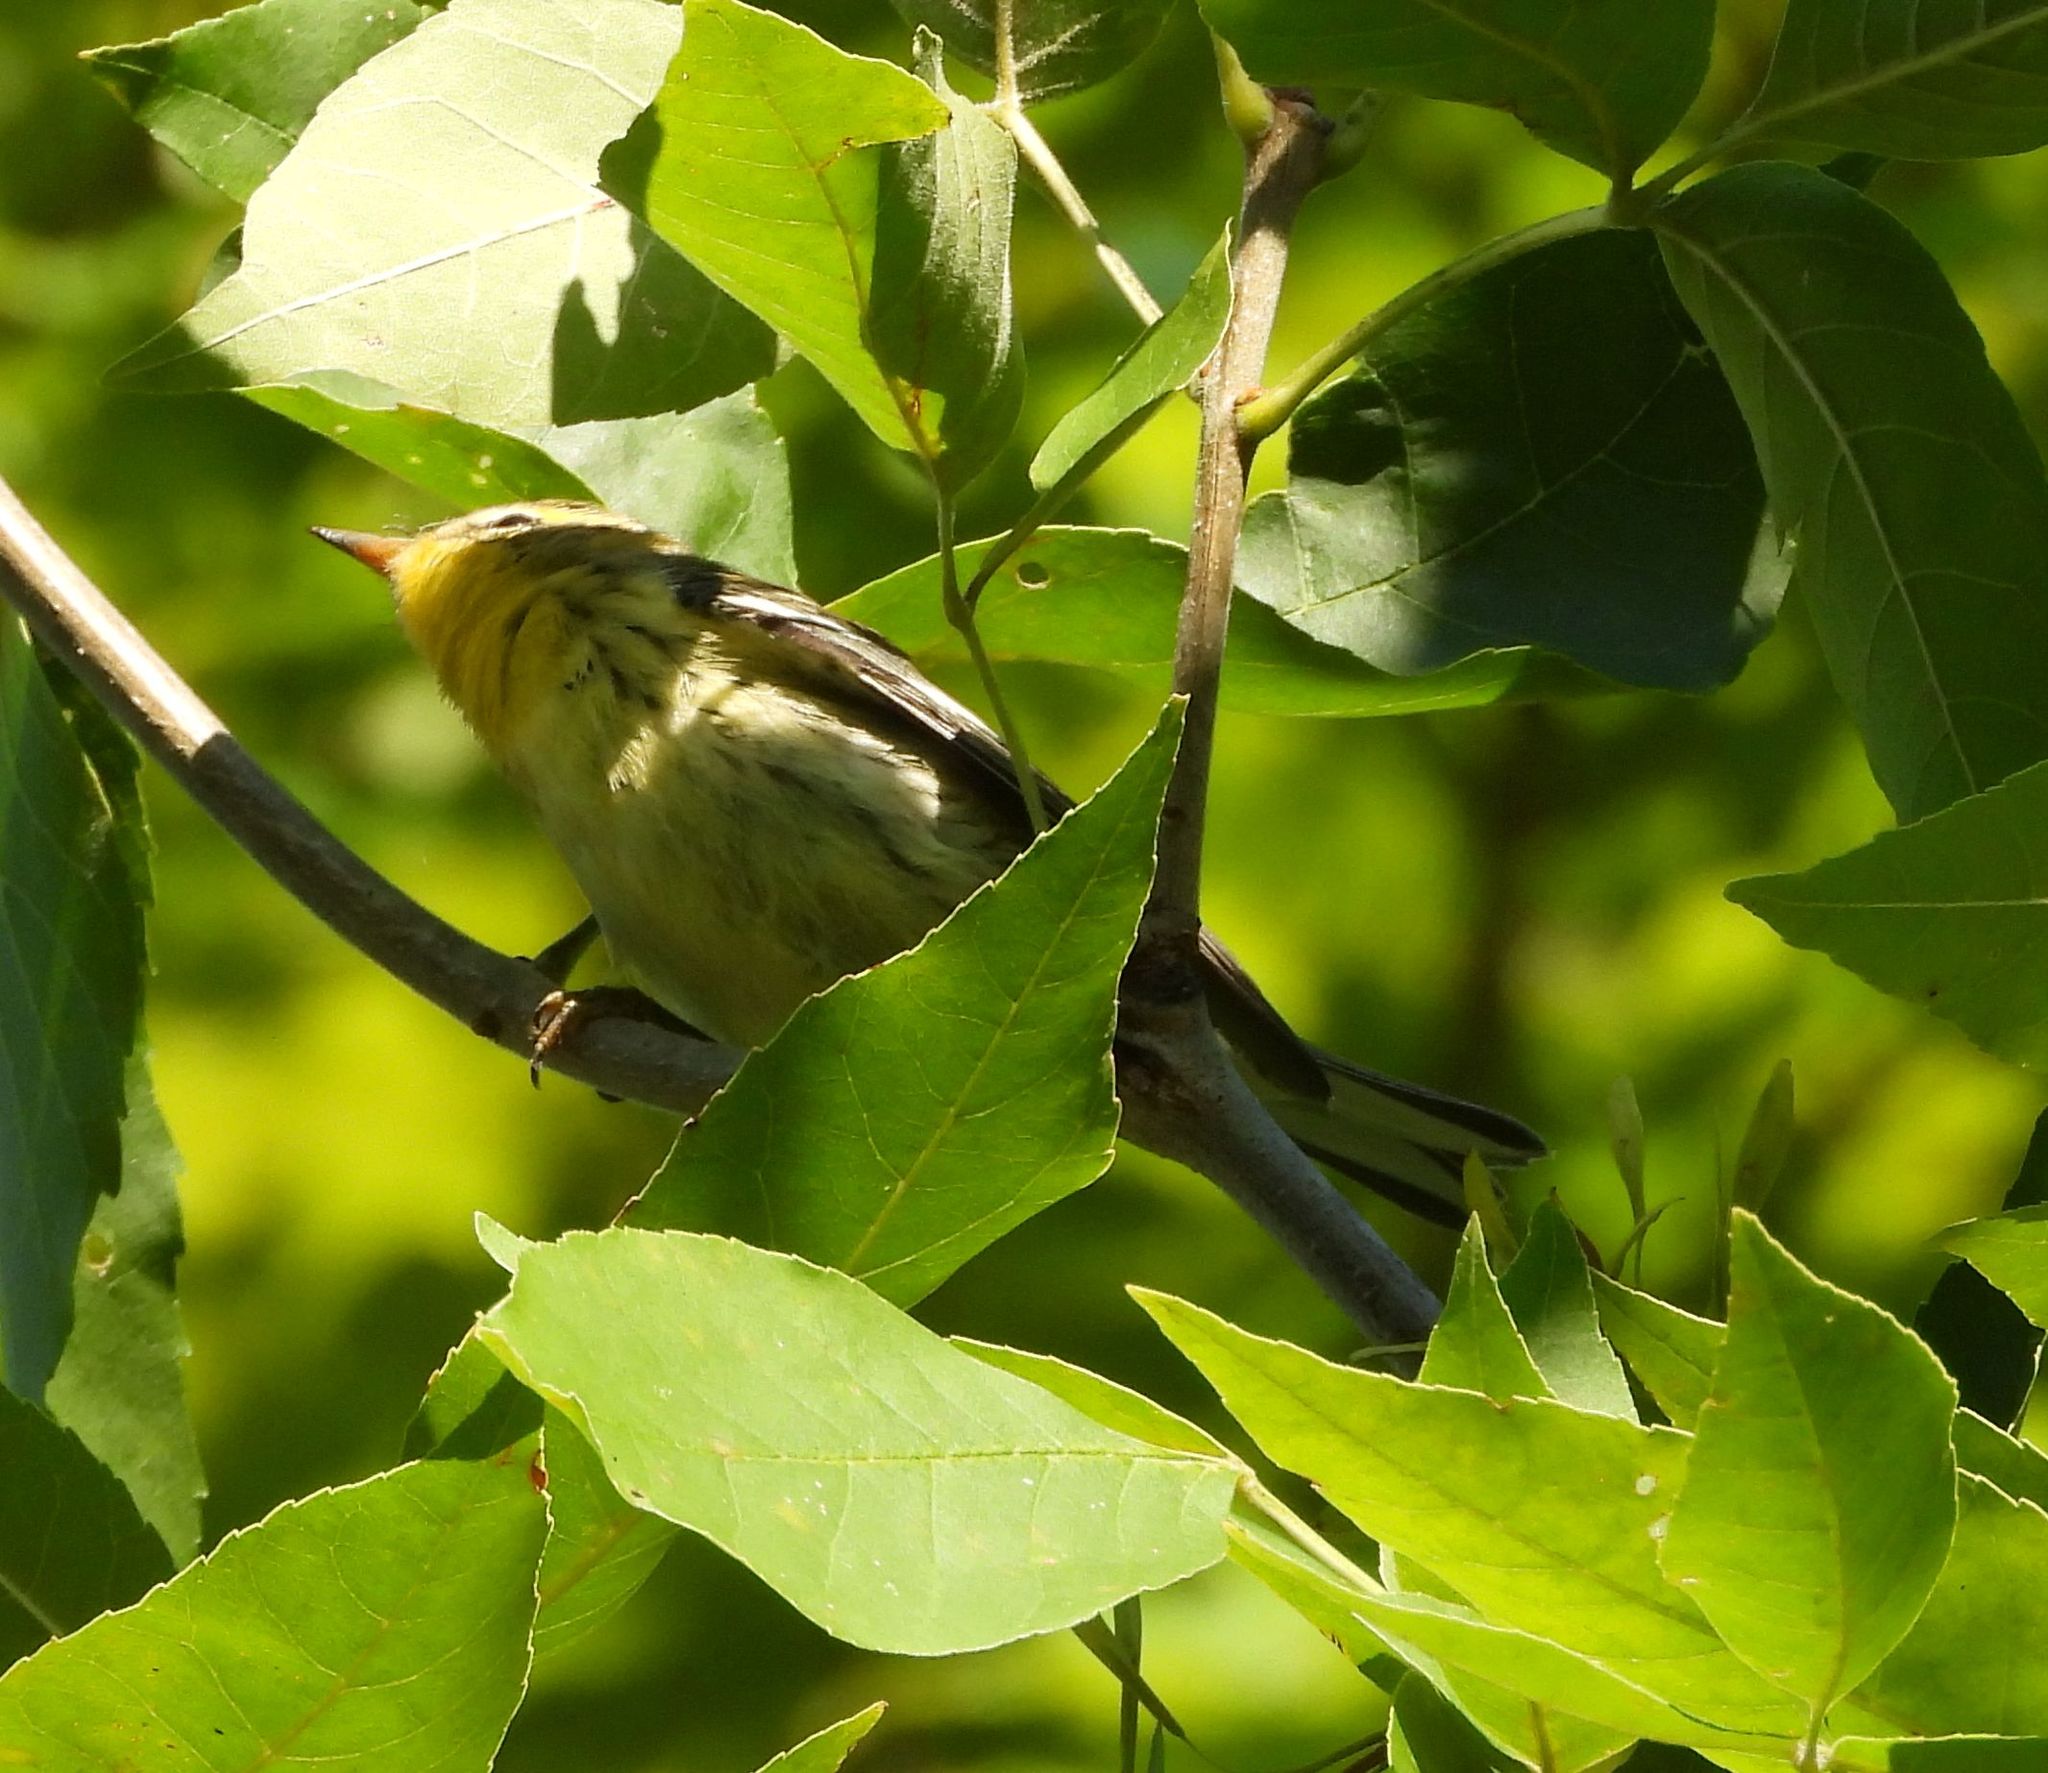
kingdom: Animalia
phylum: Chordata
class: Aves
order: Passeriformes
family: Parulidae
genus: Setophaga
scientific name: Setophaga fusca
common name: Blackburnian warbler
